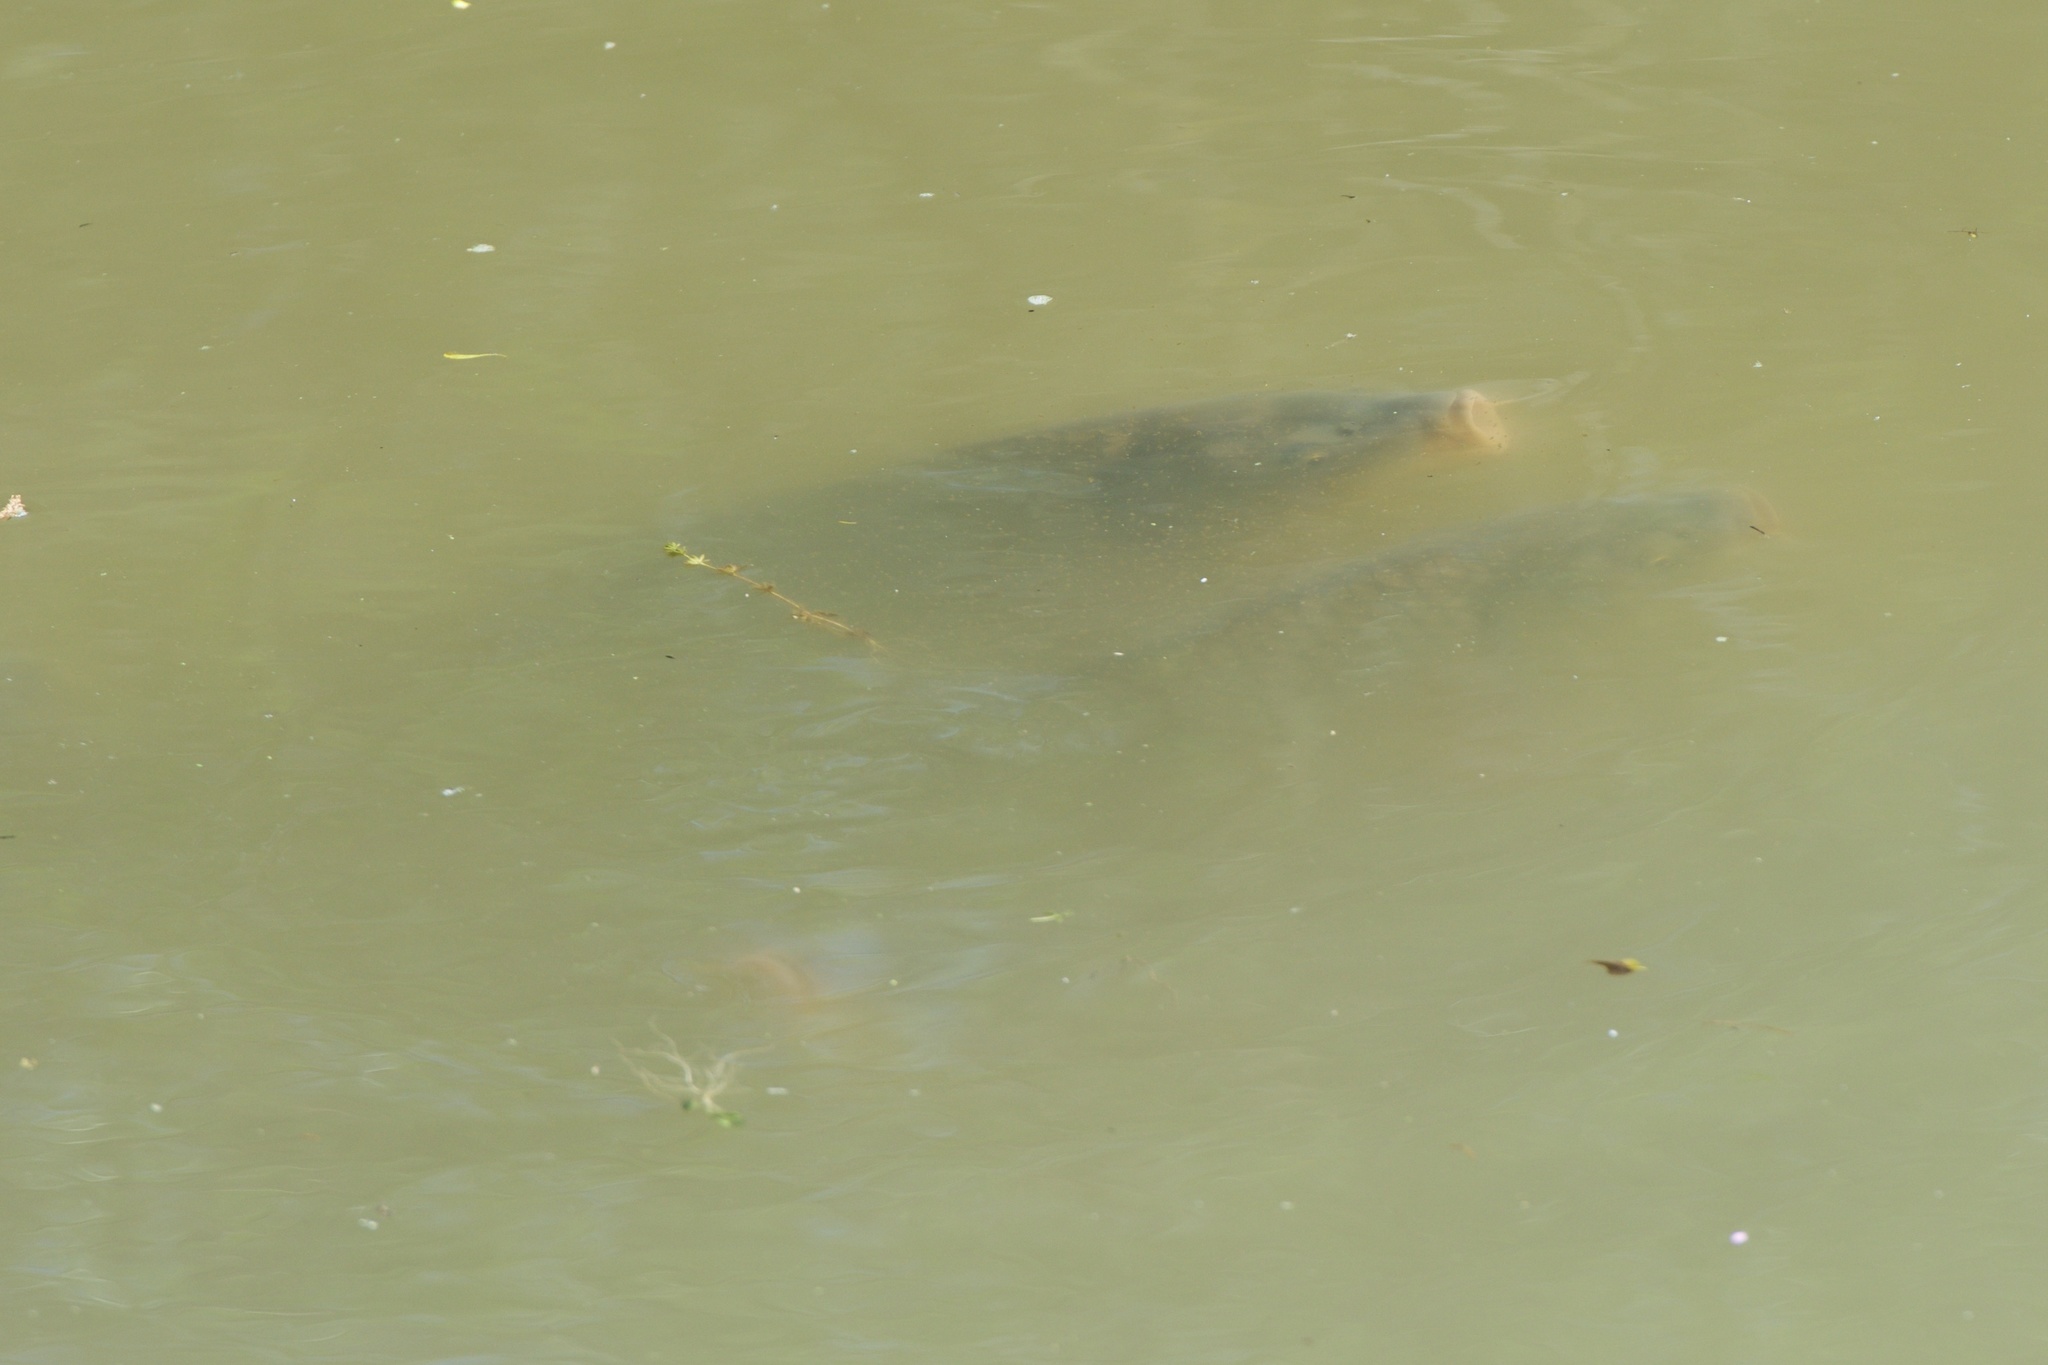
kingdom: Animalia
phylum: Chordata
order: Cypriniformes
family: Cyprinidae
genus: Cyprinus
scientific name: Cyprinus carpio
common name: Common carp
